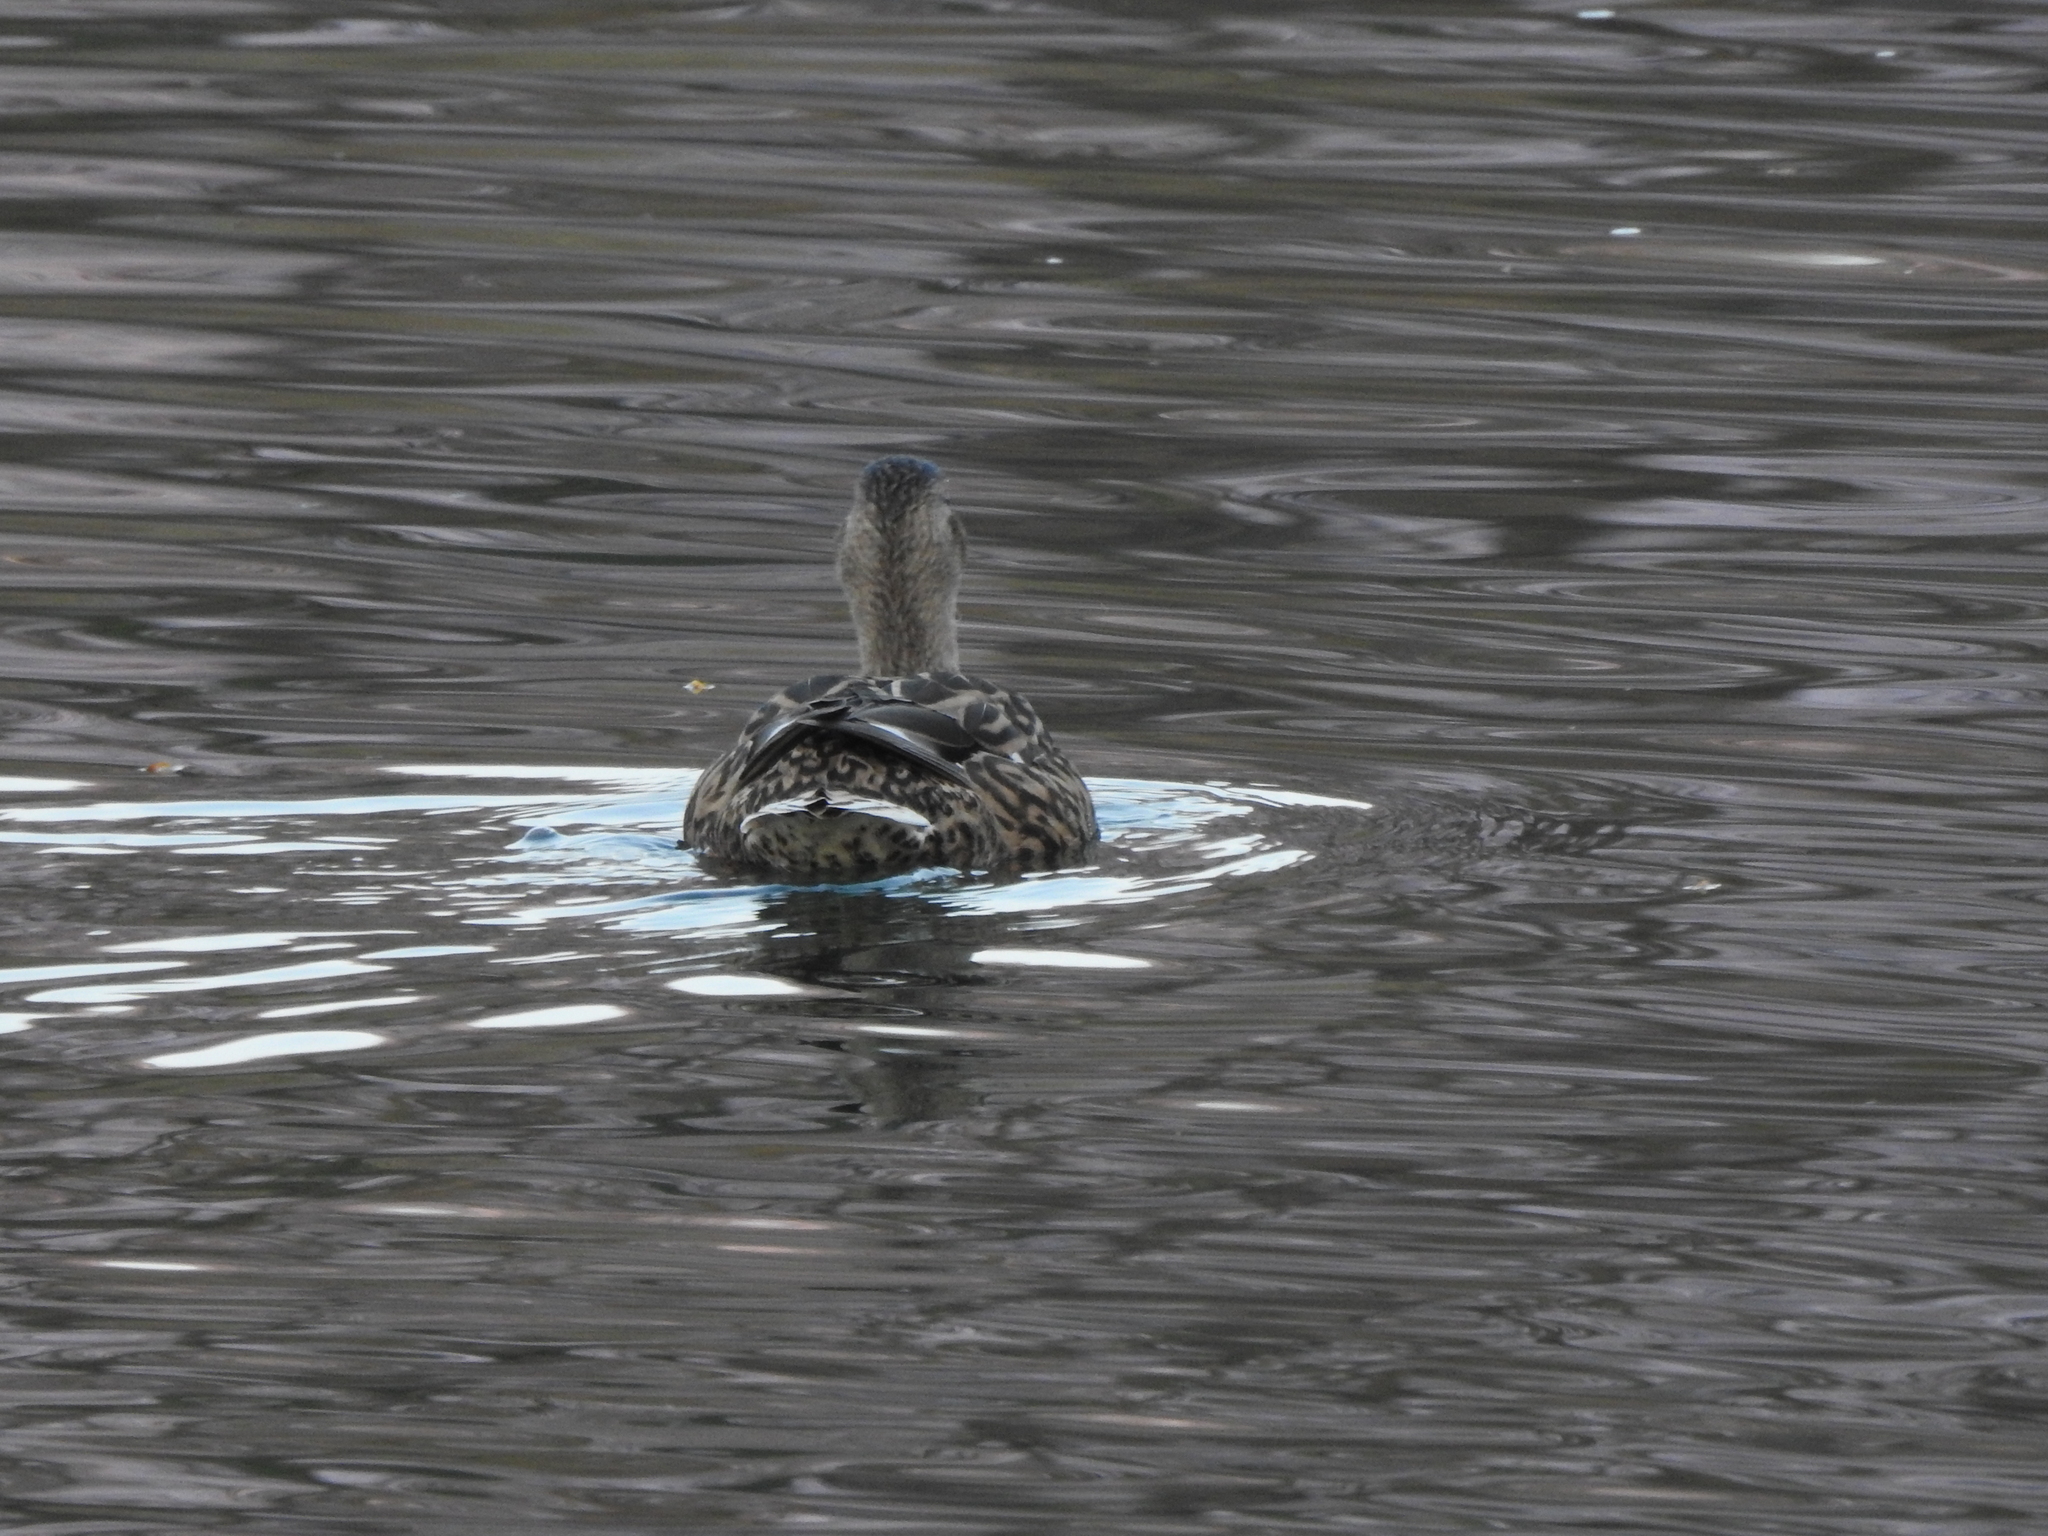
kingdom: Animalia
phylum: Chordata
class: Aves
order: Anseriformes
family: Anatidae
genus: Anas
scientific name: Anas platyrhynchos
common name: Mallard
